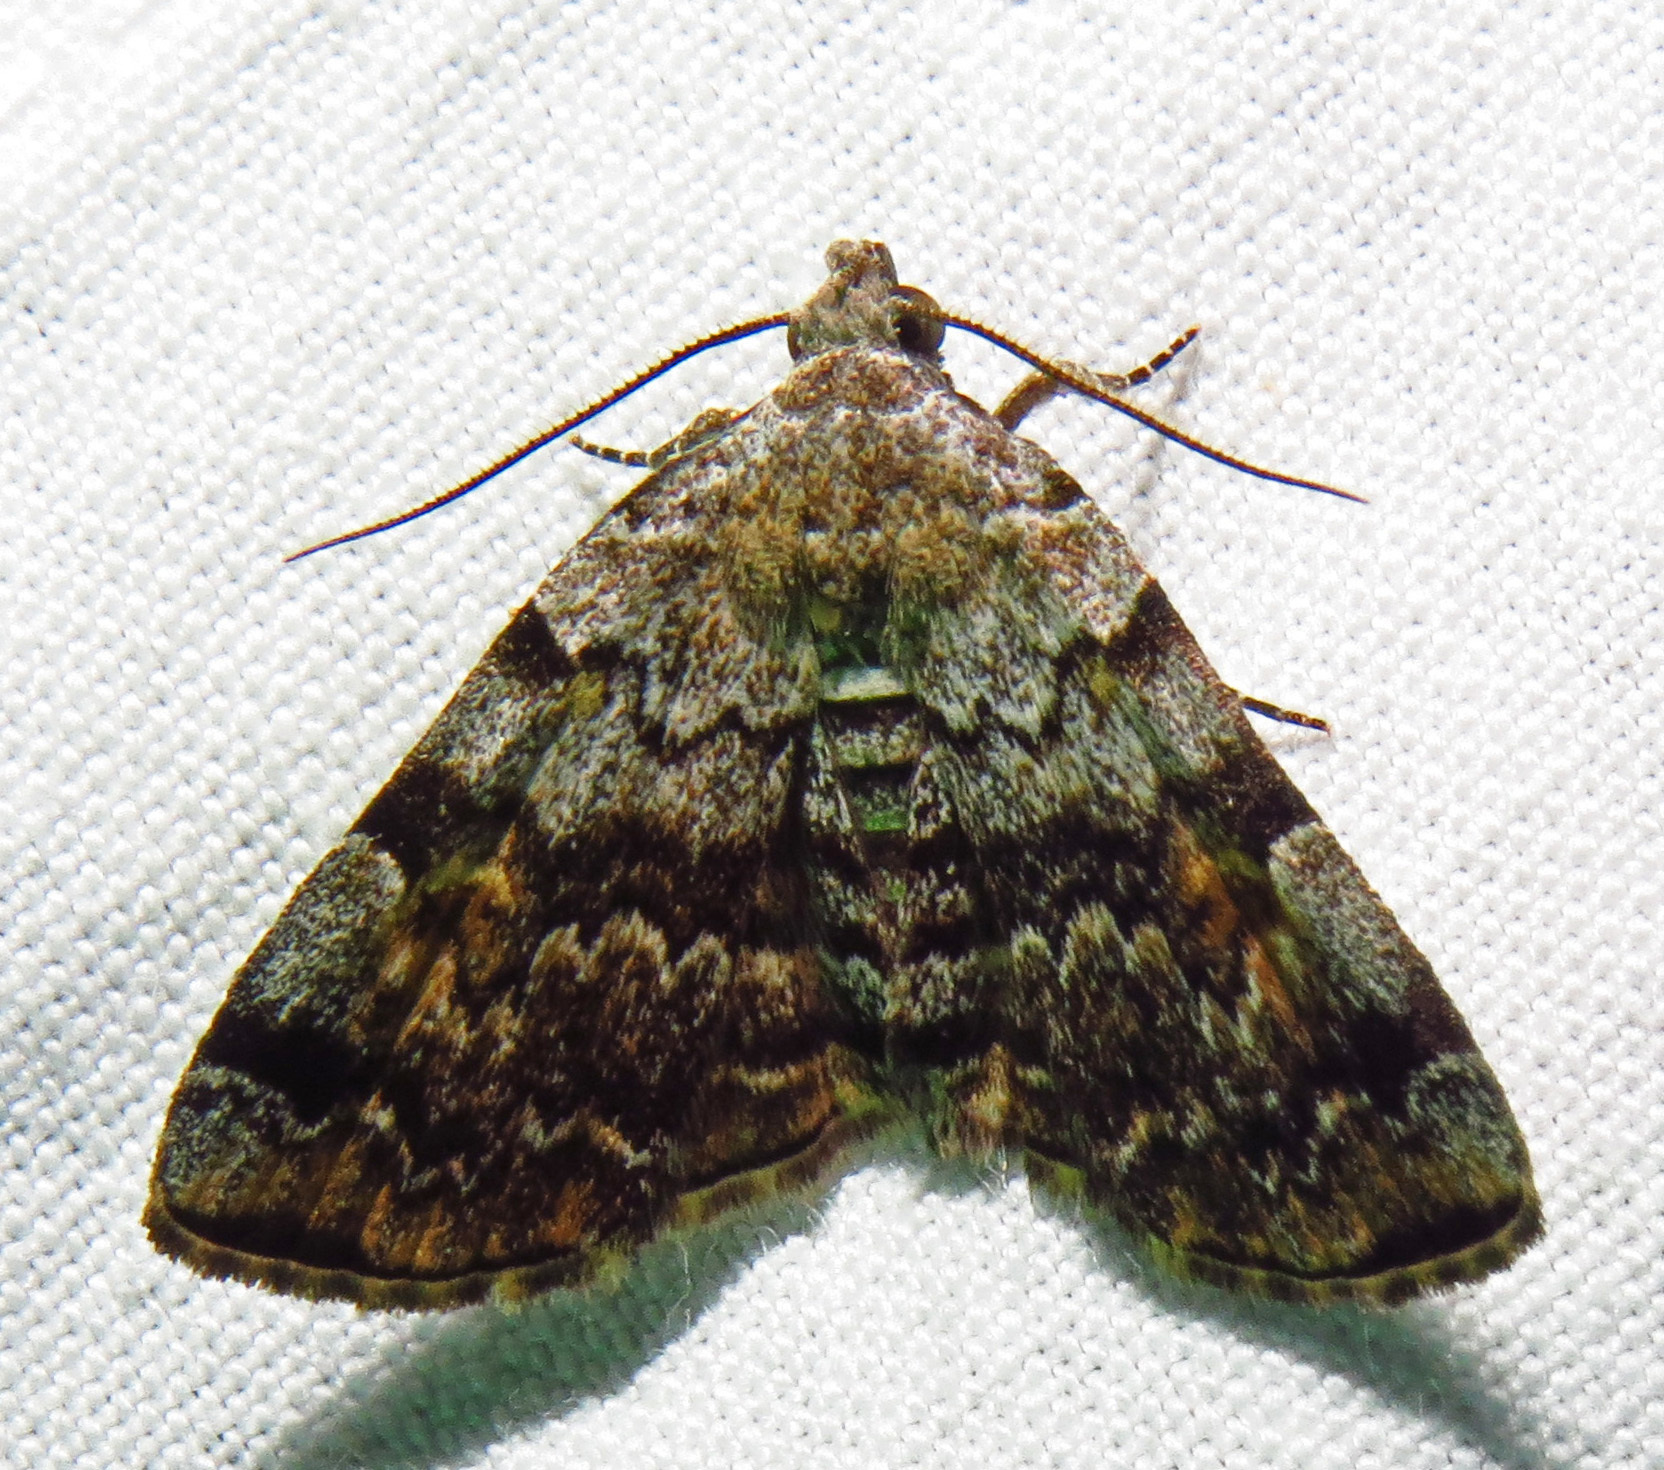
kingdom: Animalia
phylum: Arthropoda
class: Insecta
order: Lepidoptera
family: Erebidae
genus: Idia
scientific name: Idia americalis
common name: American idia moth
